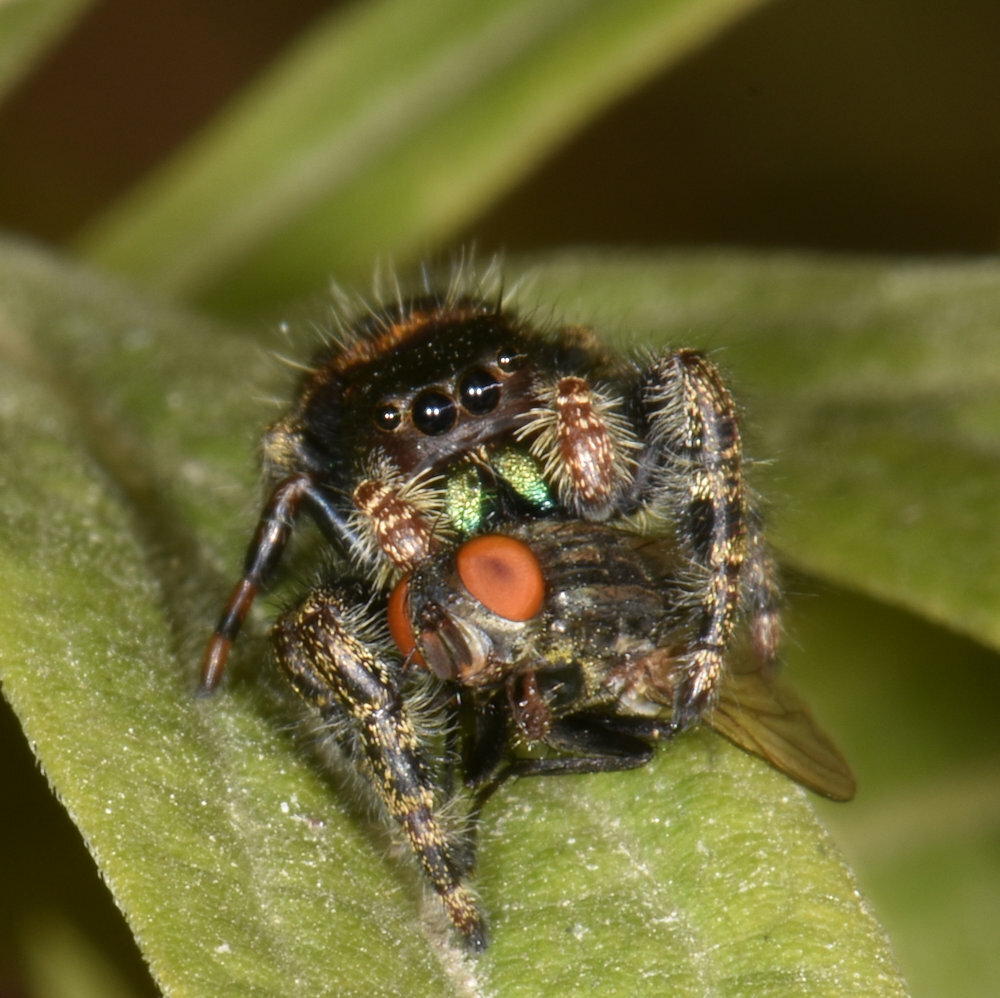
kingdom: Animalia
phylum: Arthropoda
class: Arachnida
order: Araneae
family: Salticidae
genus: Phidippus
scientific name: Phidippus audax
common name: Bold jumper
